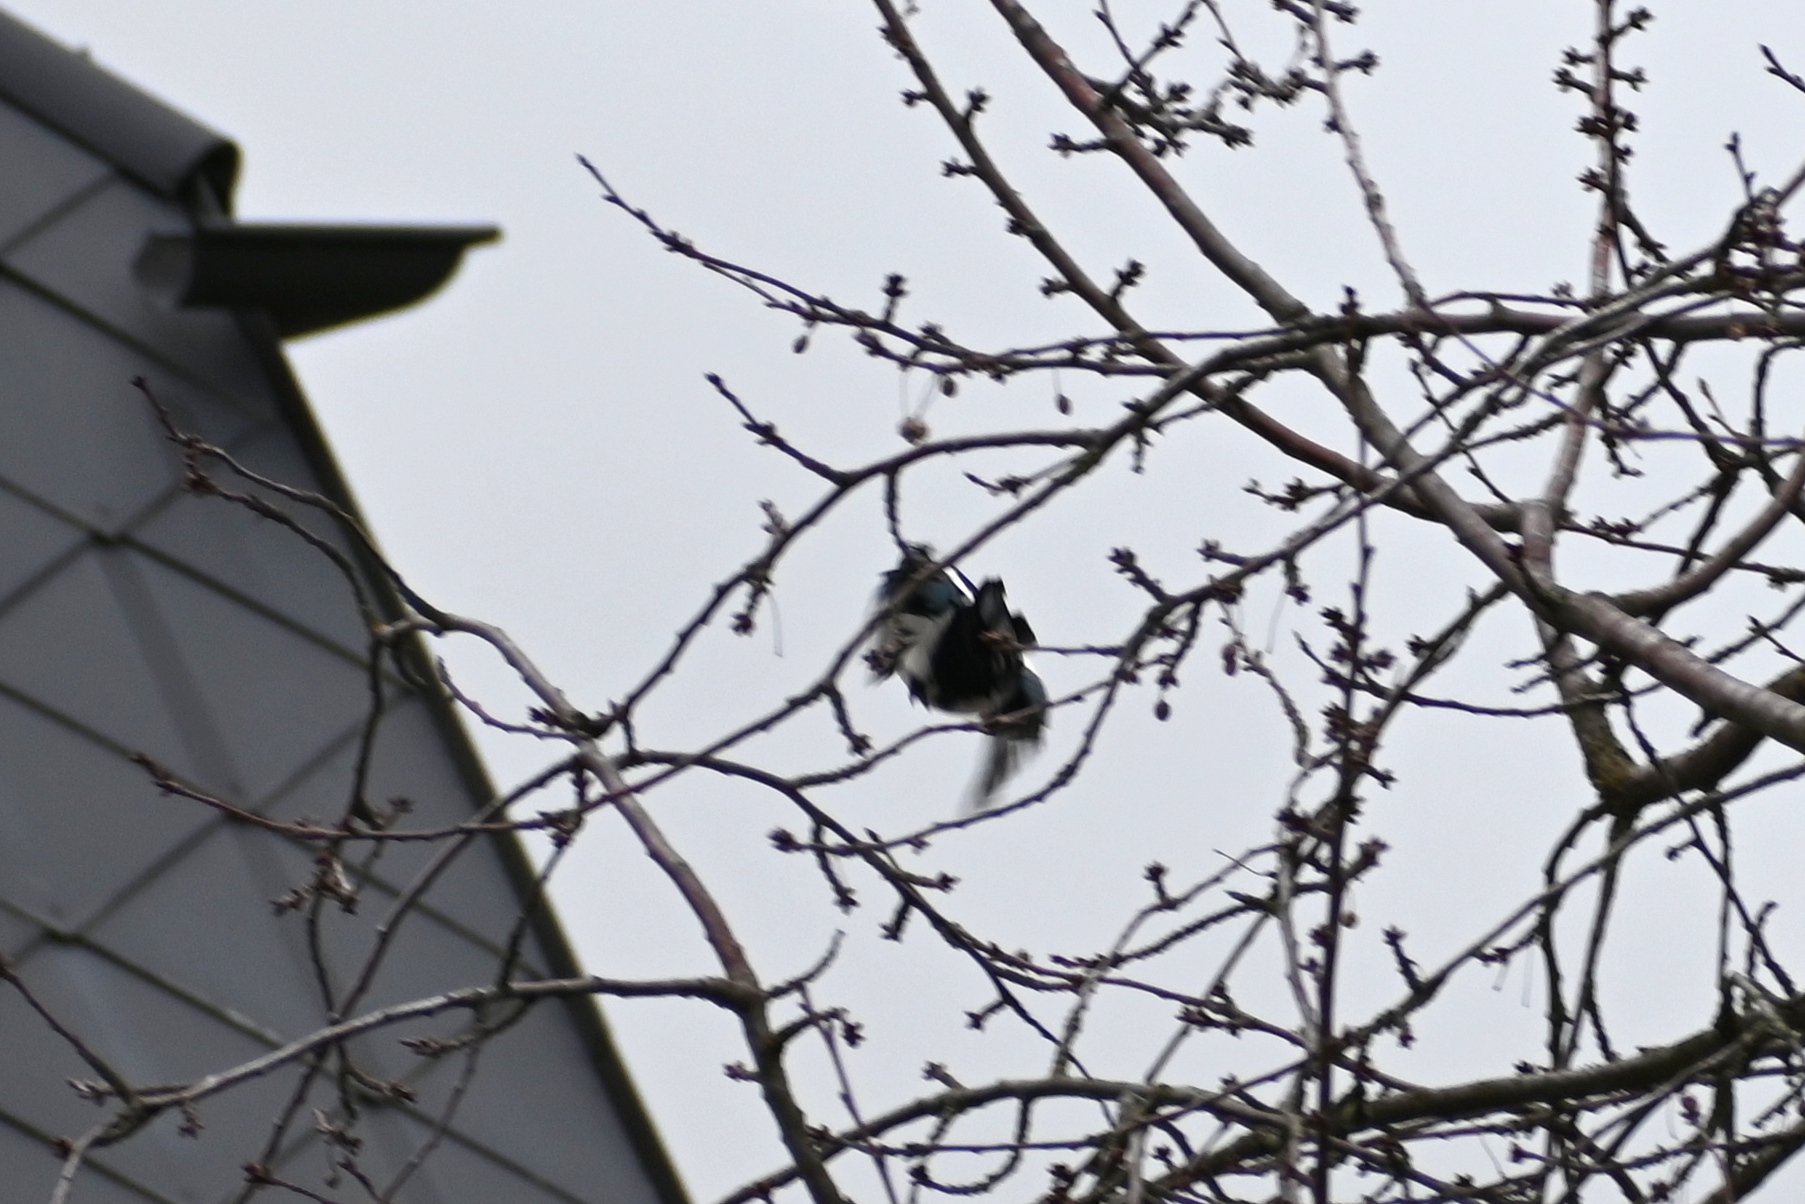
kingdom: Animalia
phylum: Chordata
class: Aves
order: Passeriformes
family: Corvidae
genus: Pica
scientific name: Pica pica
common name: Eurasian magpie
